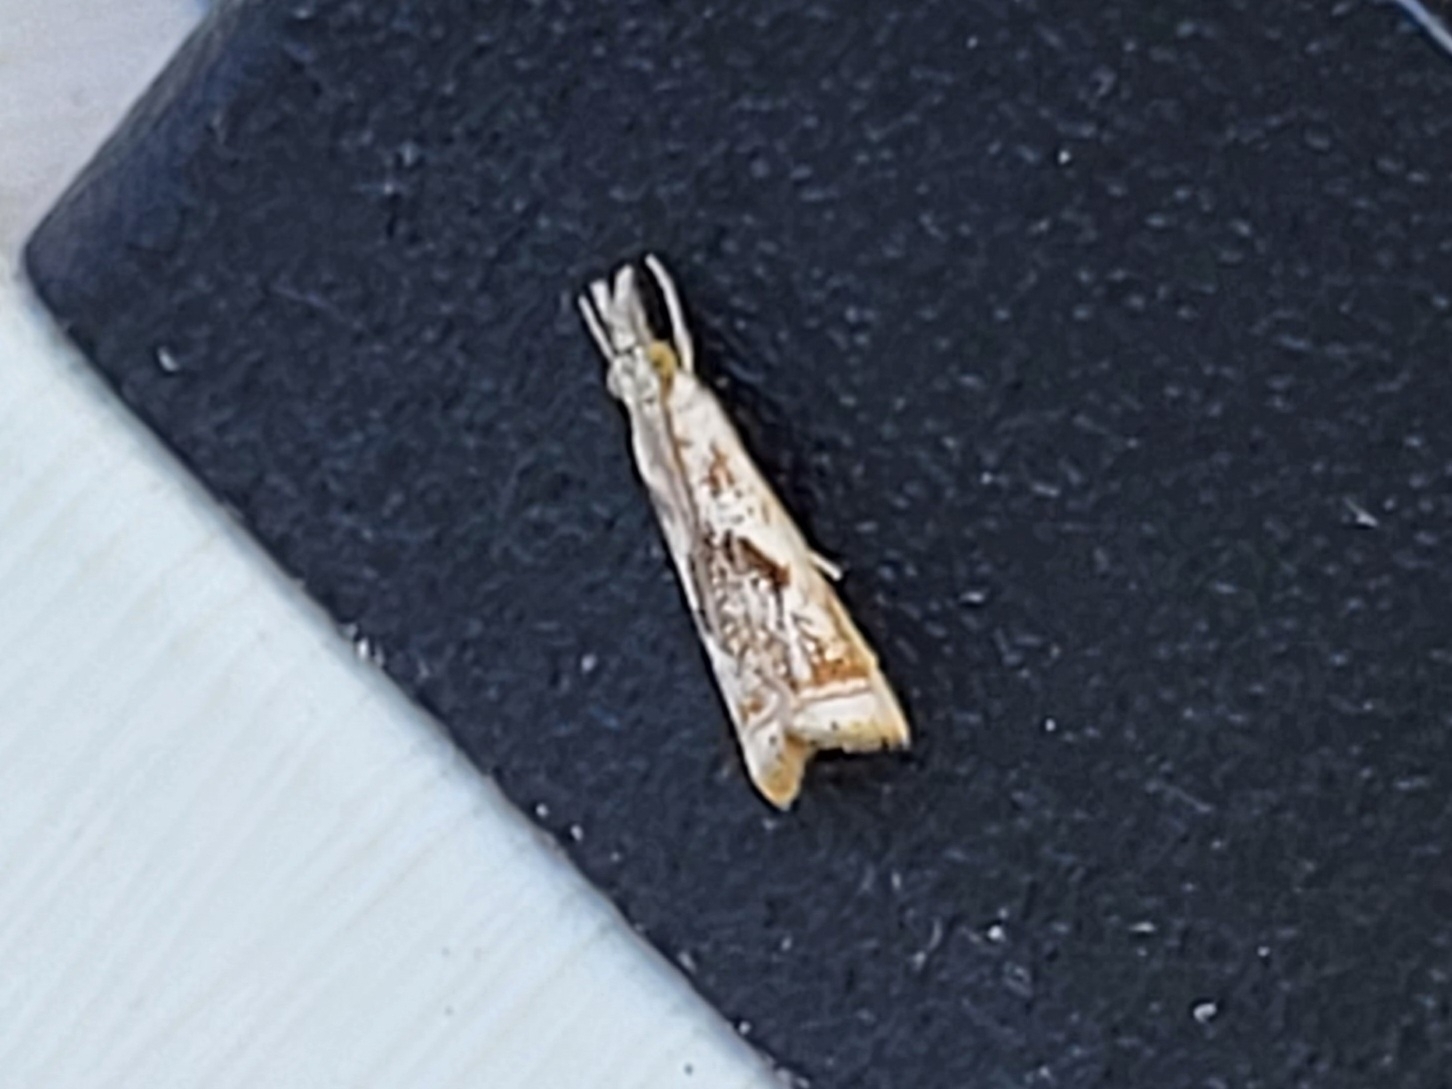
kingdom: Animalia
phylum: Arthropoda
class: Insecta
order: Lepidoptera
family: Crambidae
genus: Microcrambus
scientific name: Microcrambus elegans
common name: Elegant grass-veneer
